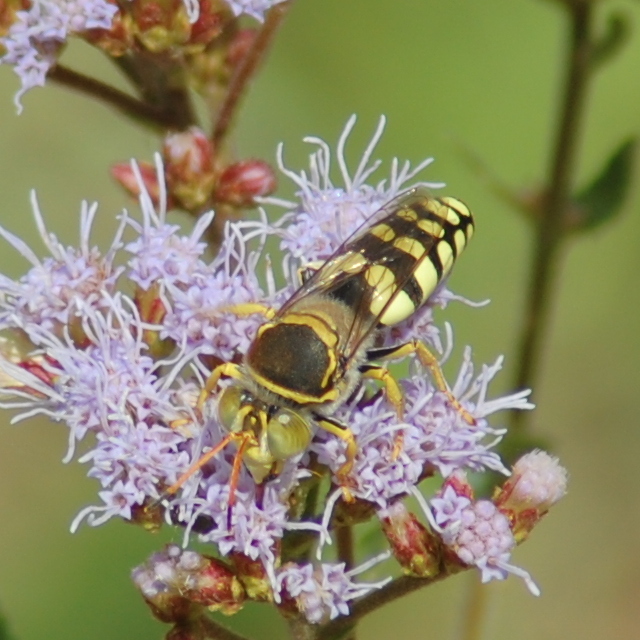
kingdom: Animalia
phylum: Arthropoda
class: Insecta
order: Hymenoptera
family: Crabronidae
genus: Trichostictia
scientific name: Trichostictia guttata
